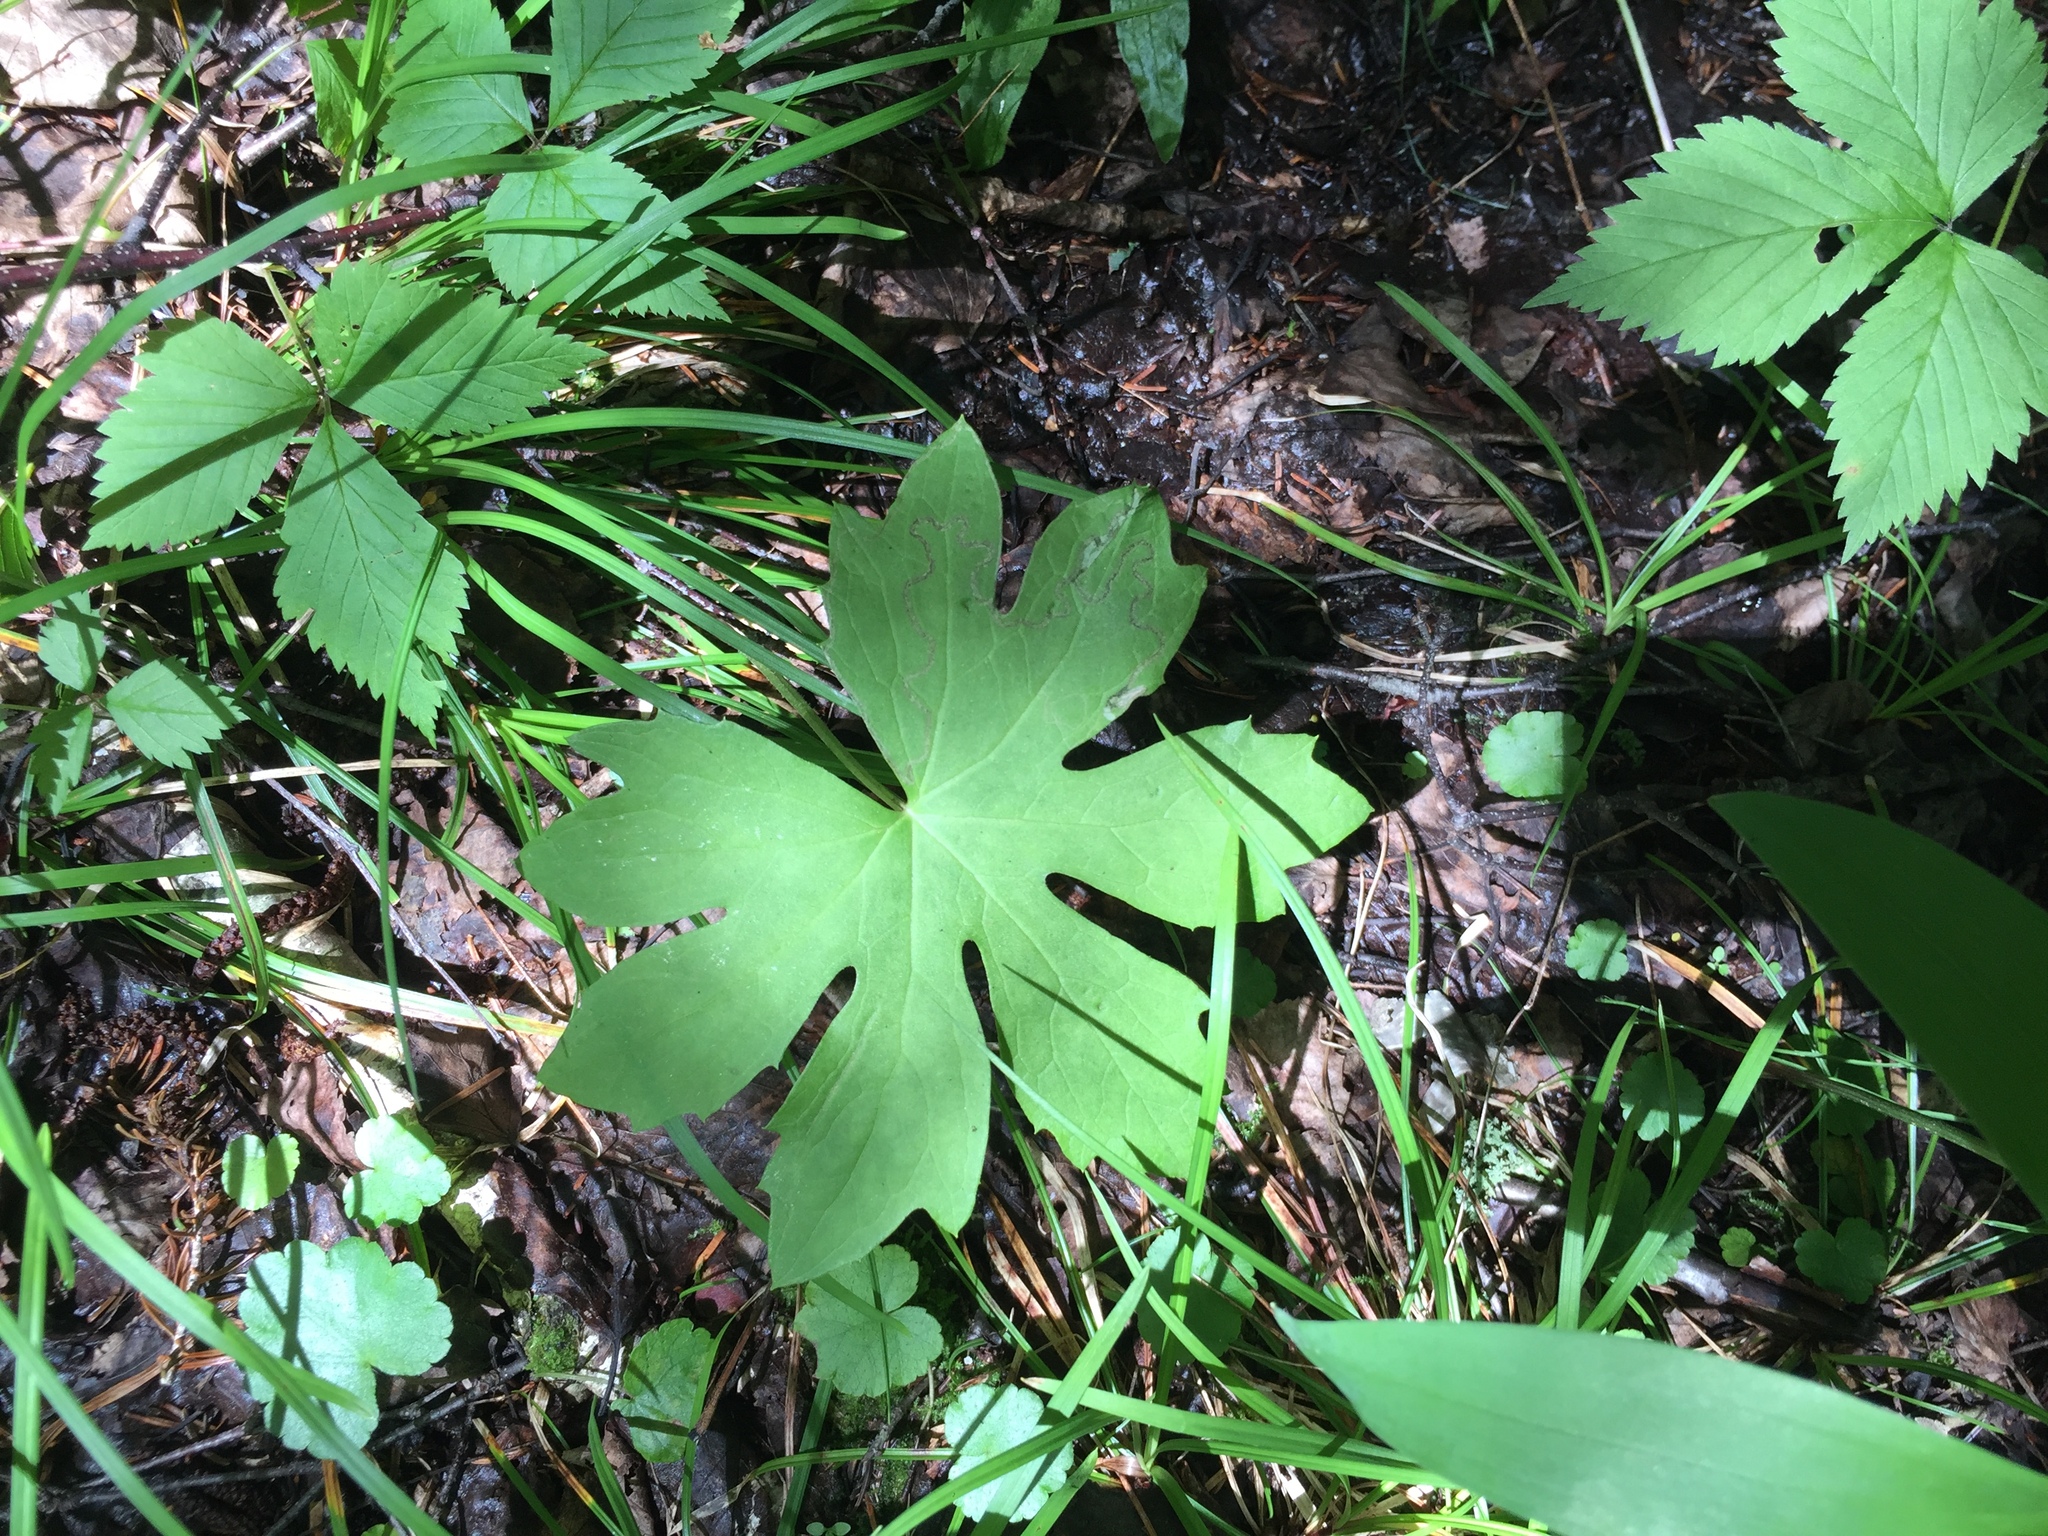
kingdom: Plantae
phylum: Tracheophyta
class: Magnoliopsida
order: Asterales
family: Asteraceae
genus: Petasites
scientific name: Petasites frigidus
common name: Arctic butterbur
